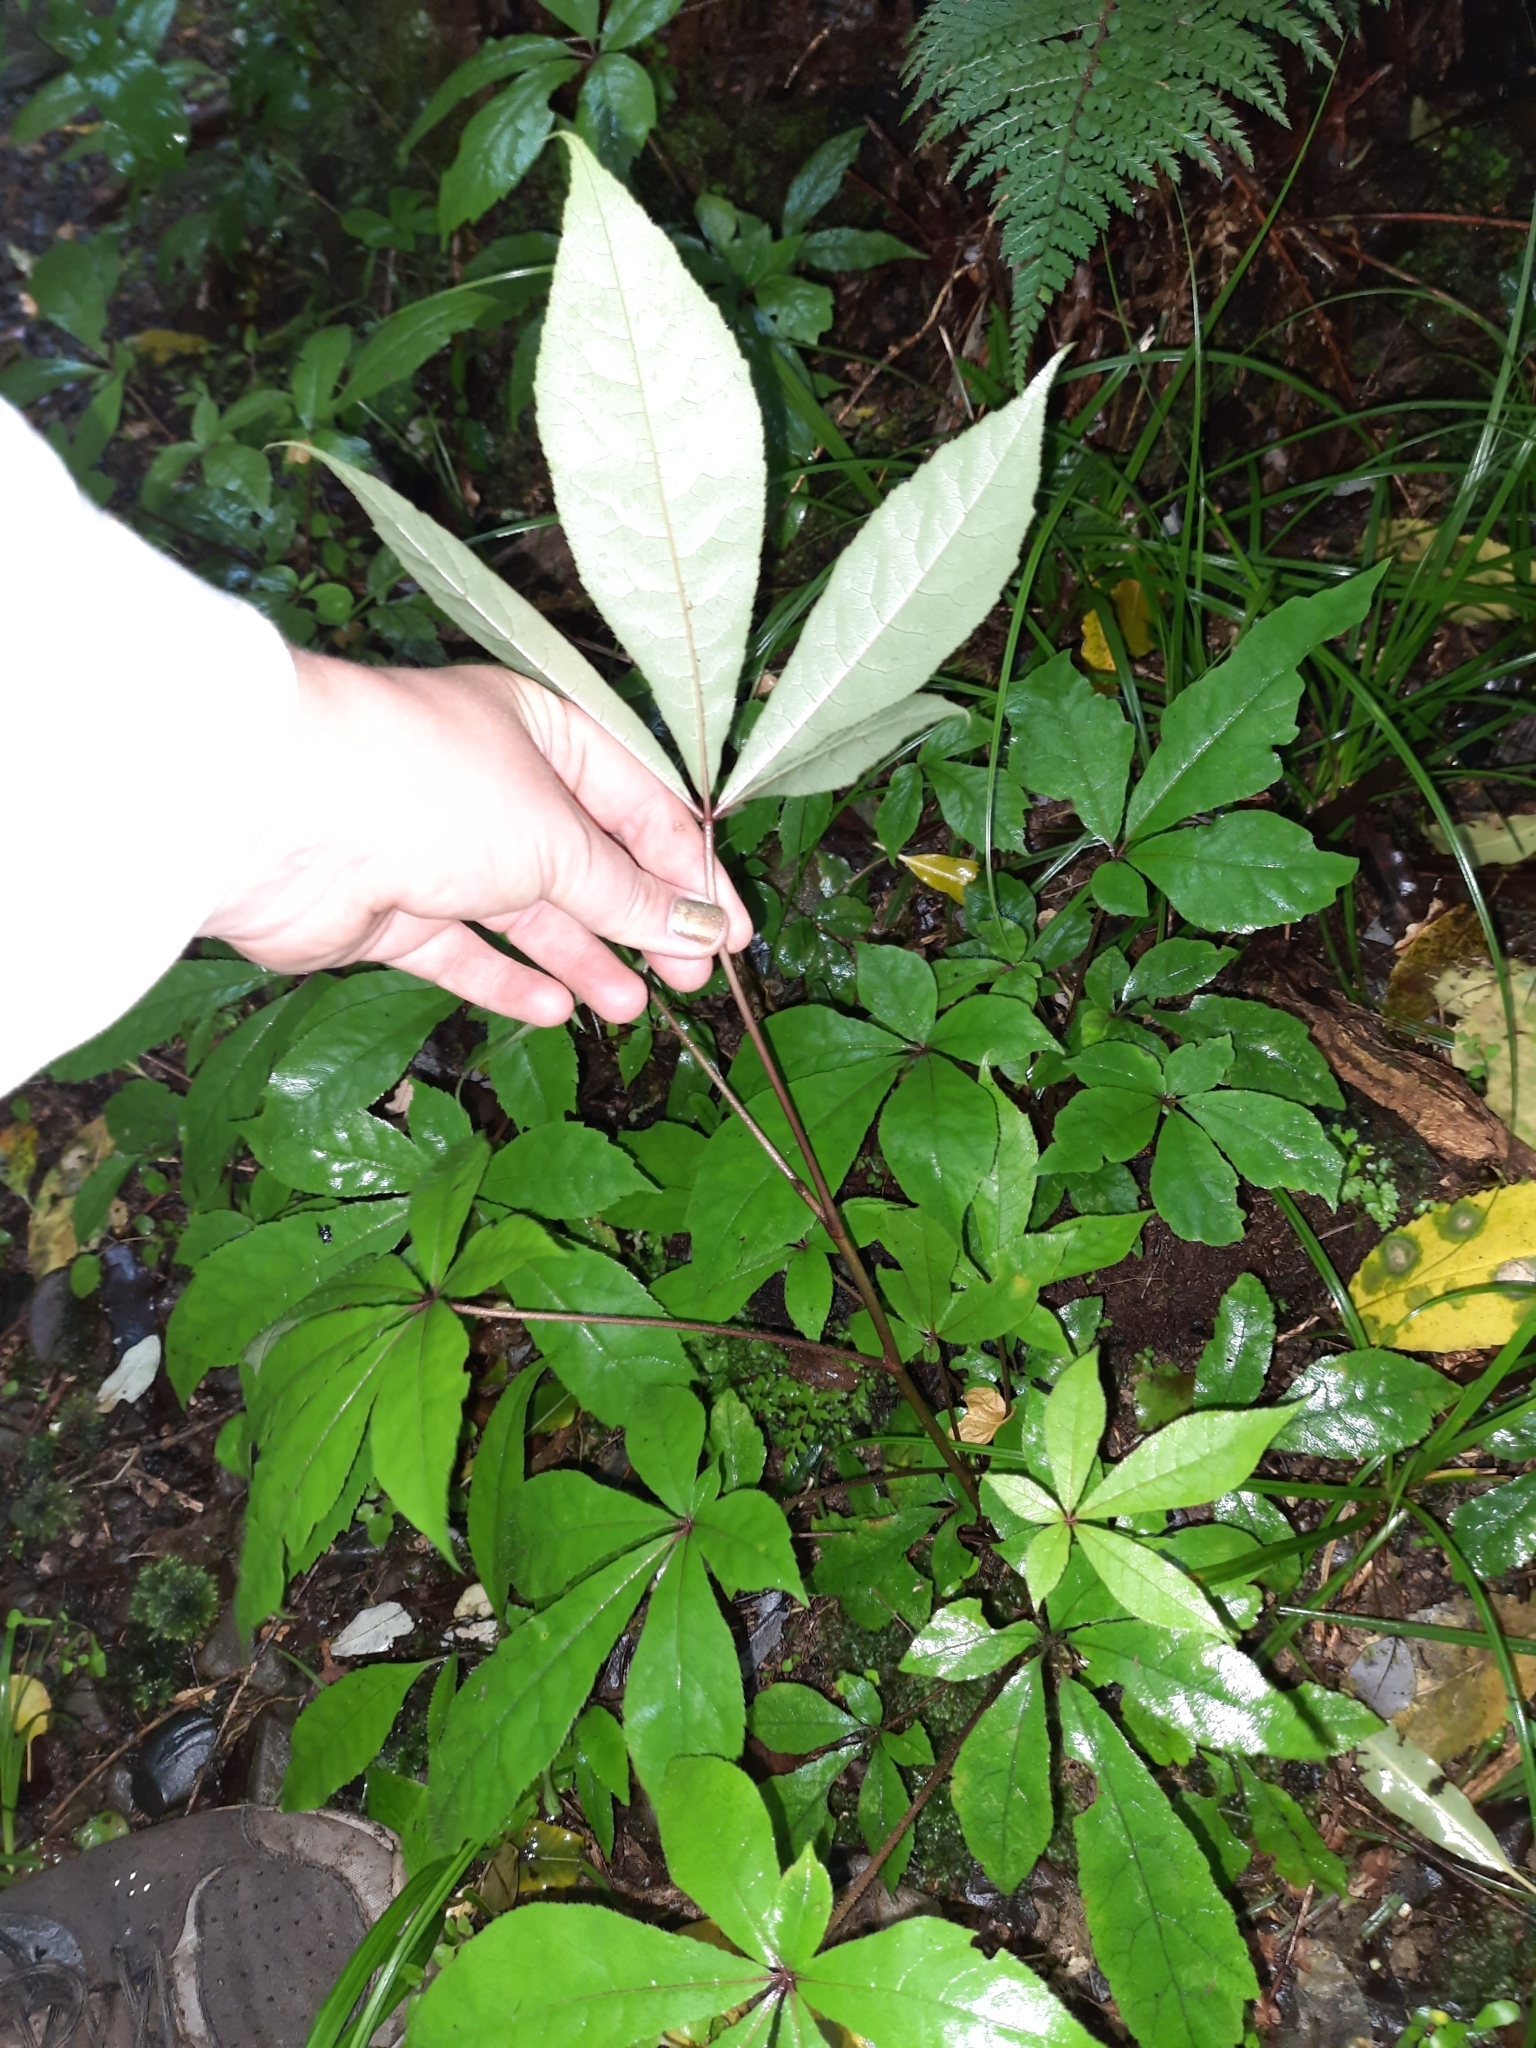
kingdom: Plantae
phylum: Tracheophyta
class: Magnoliopsida
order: Apiales
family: Araliaceae
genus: Schefflera
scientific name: Schefflera digitata
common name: Pate
